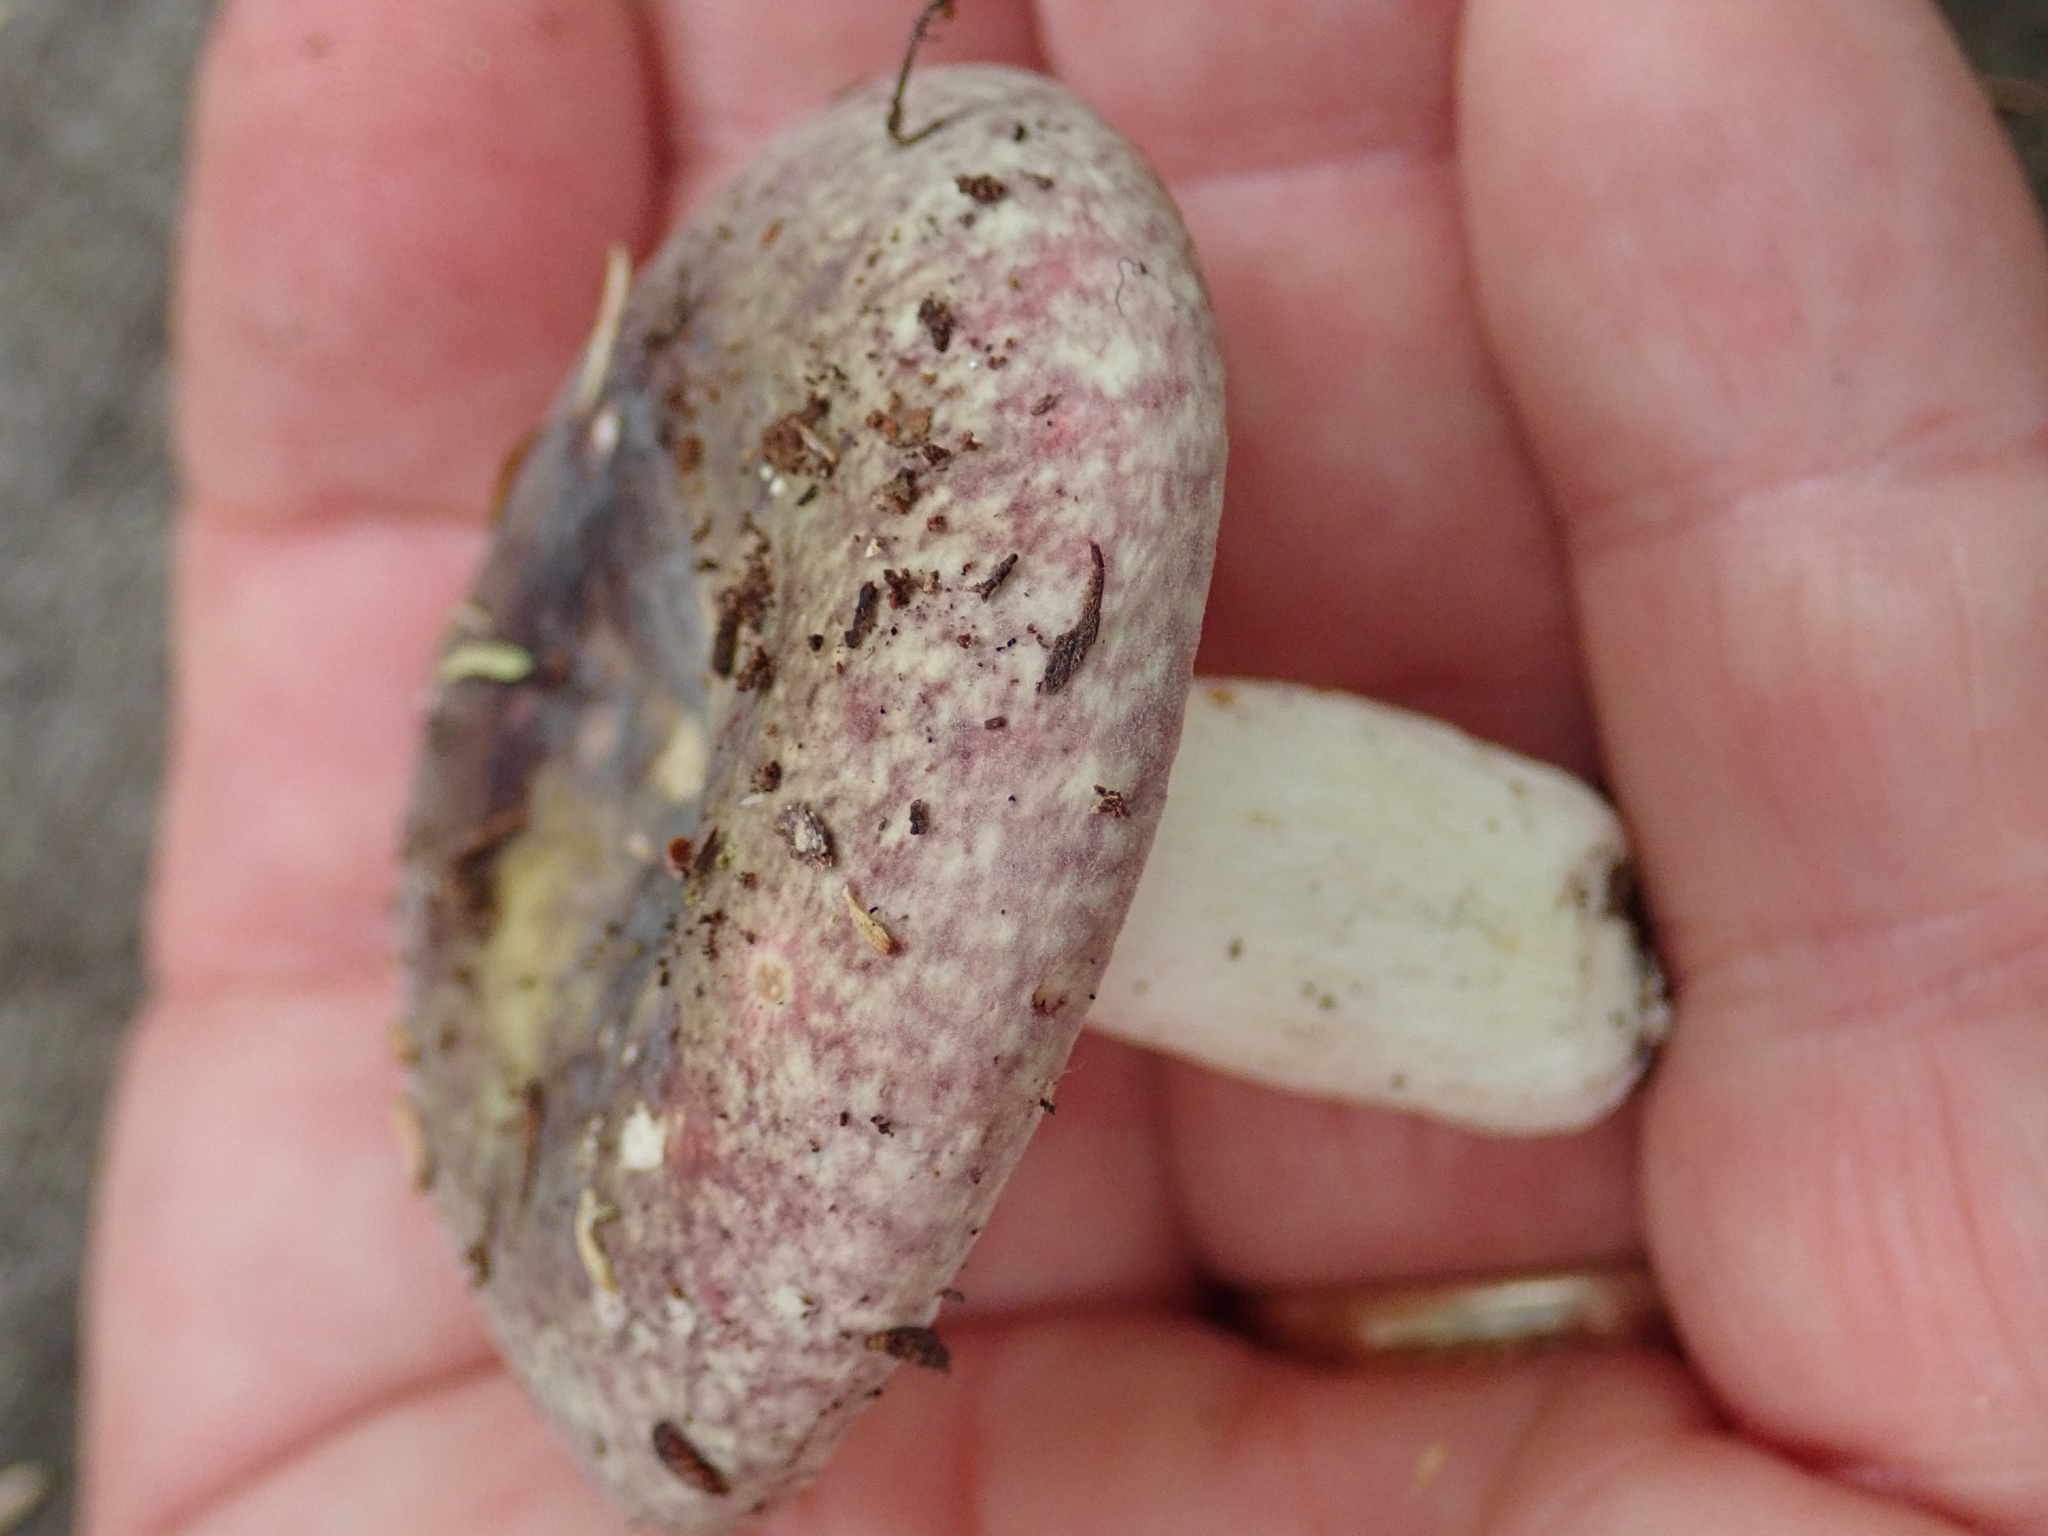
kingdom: Fungi
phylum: Basidiomycota
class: Agaricomycetes
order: Russulales
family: Russulaceae
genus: Russula
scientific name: Russula
